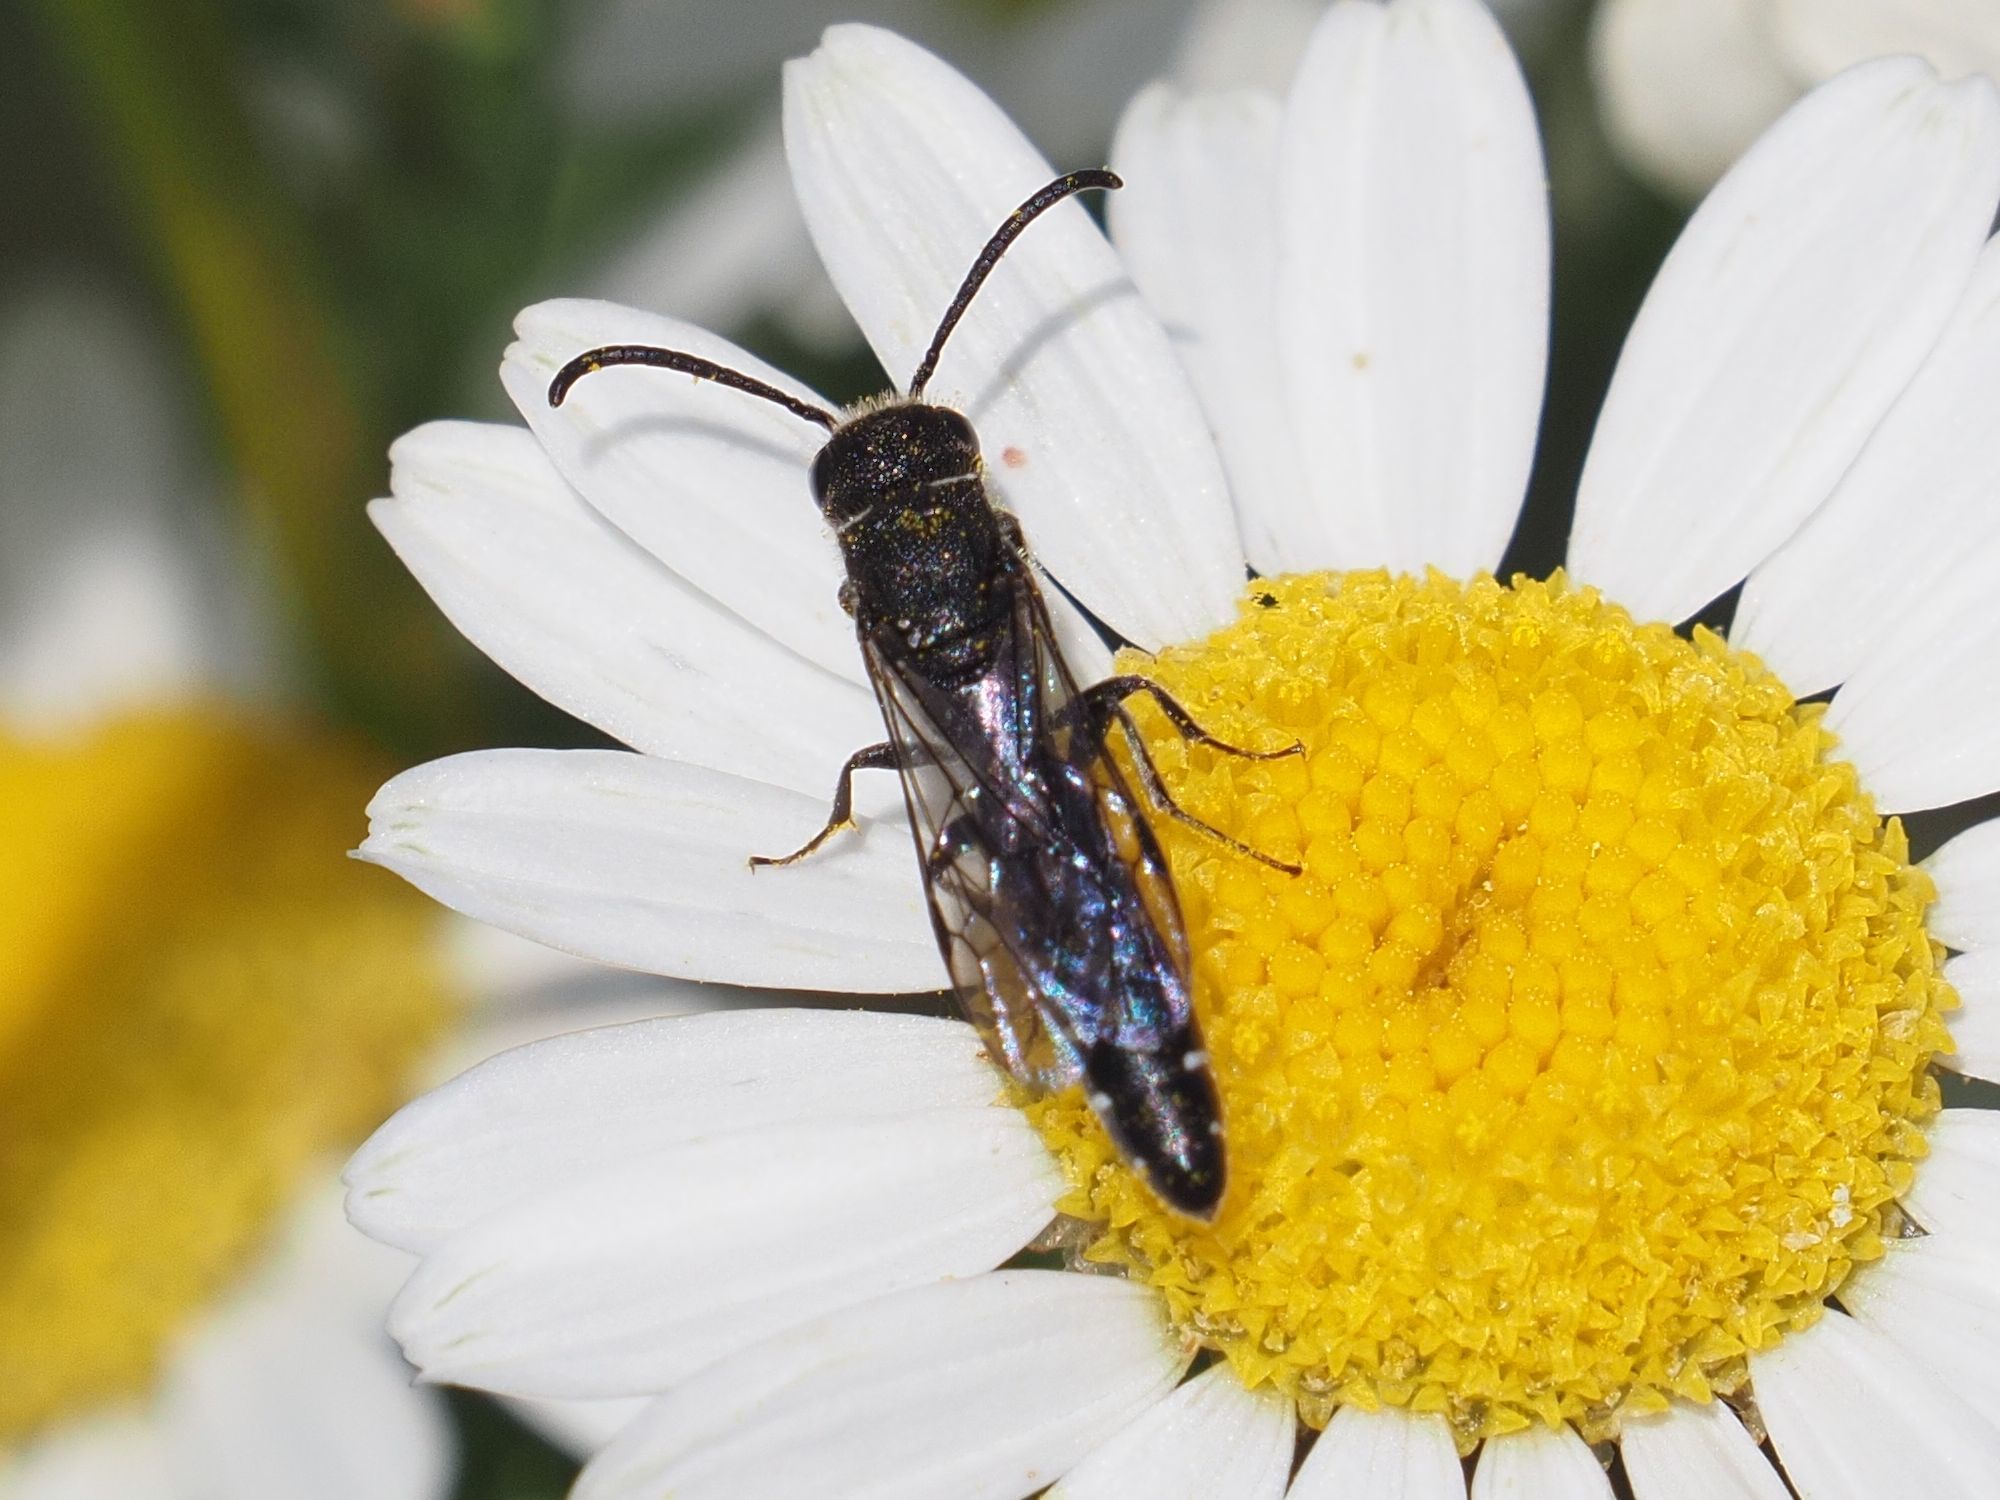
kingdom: Animalia
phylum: Arthropoda
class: Insecta
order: Hymenoptera
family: Sapygidae
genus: Sapygina
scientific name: Sapygina decemguttata
